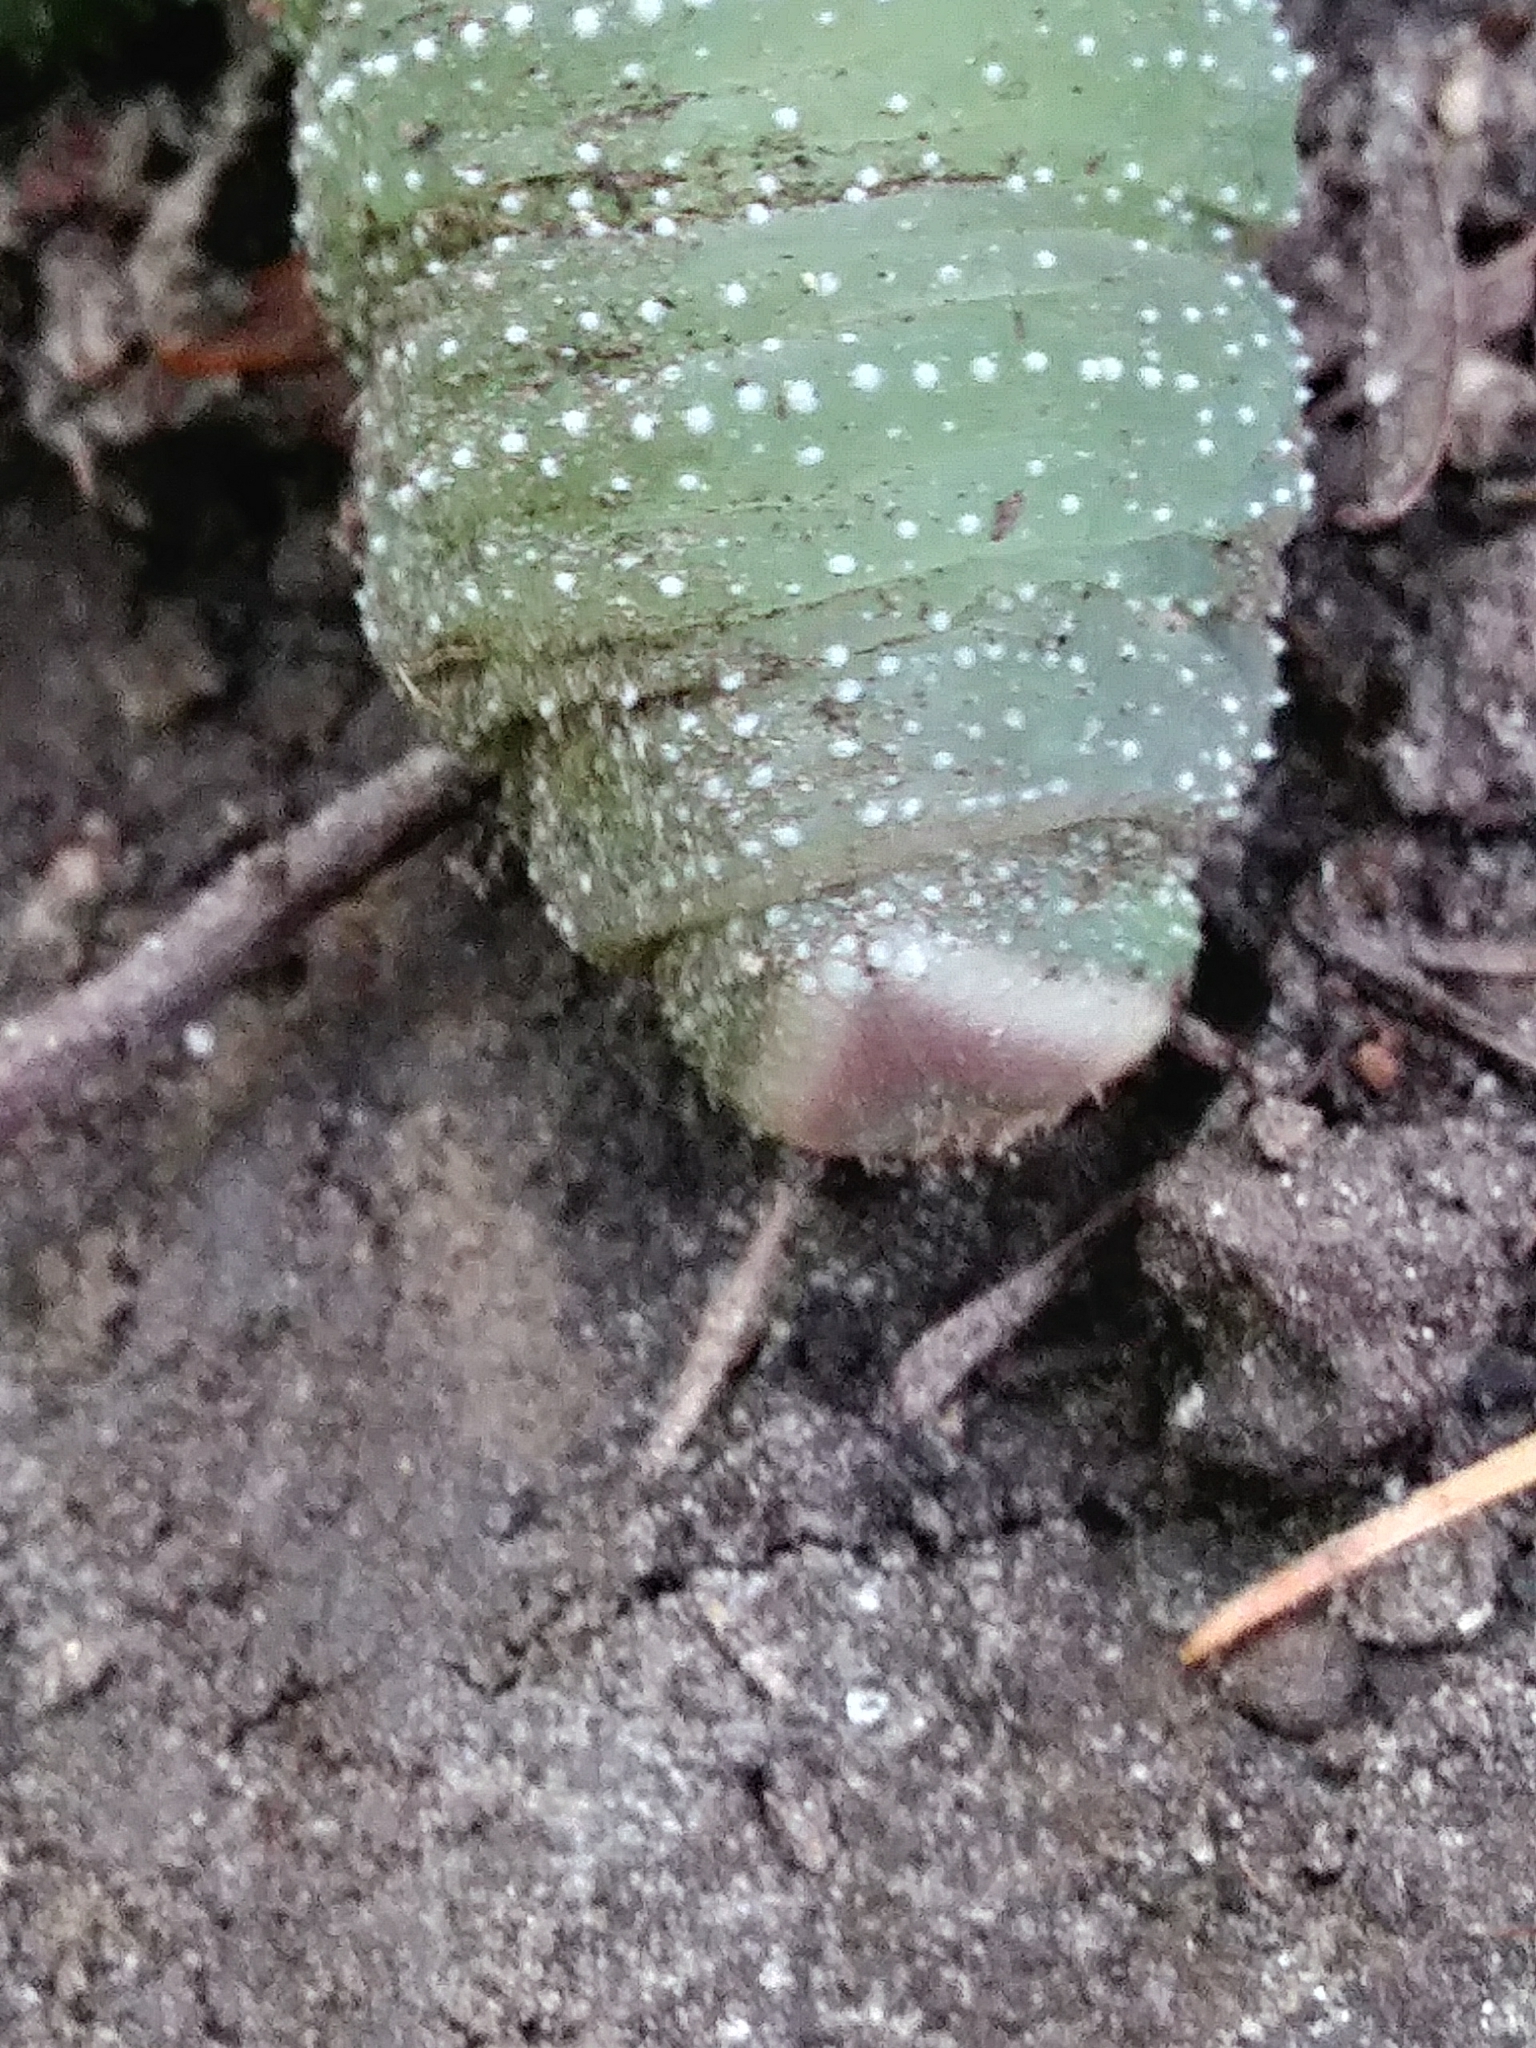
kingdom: Animalia
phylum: Arthropoda
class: Insecta
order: Lepidoptera
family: Sphingidae
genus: Pachysphinx
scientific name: Pachysphinx modesta
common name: Big poplar sphinx
